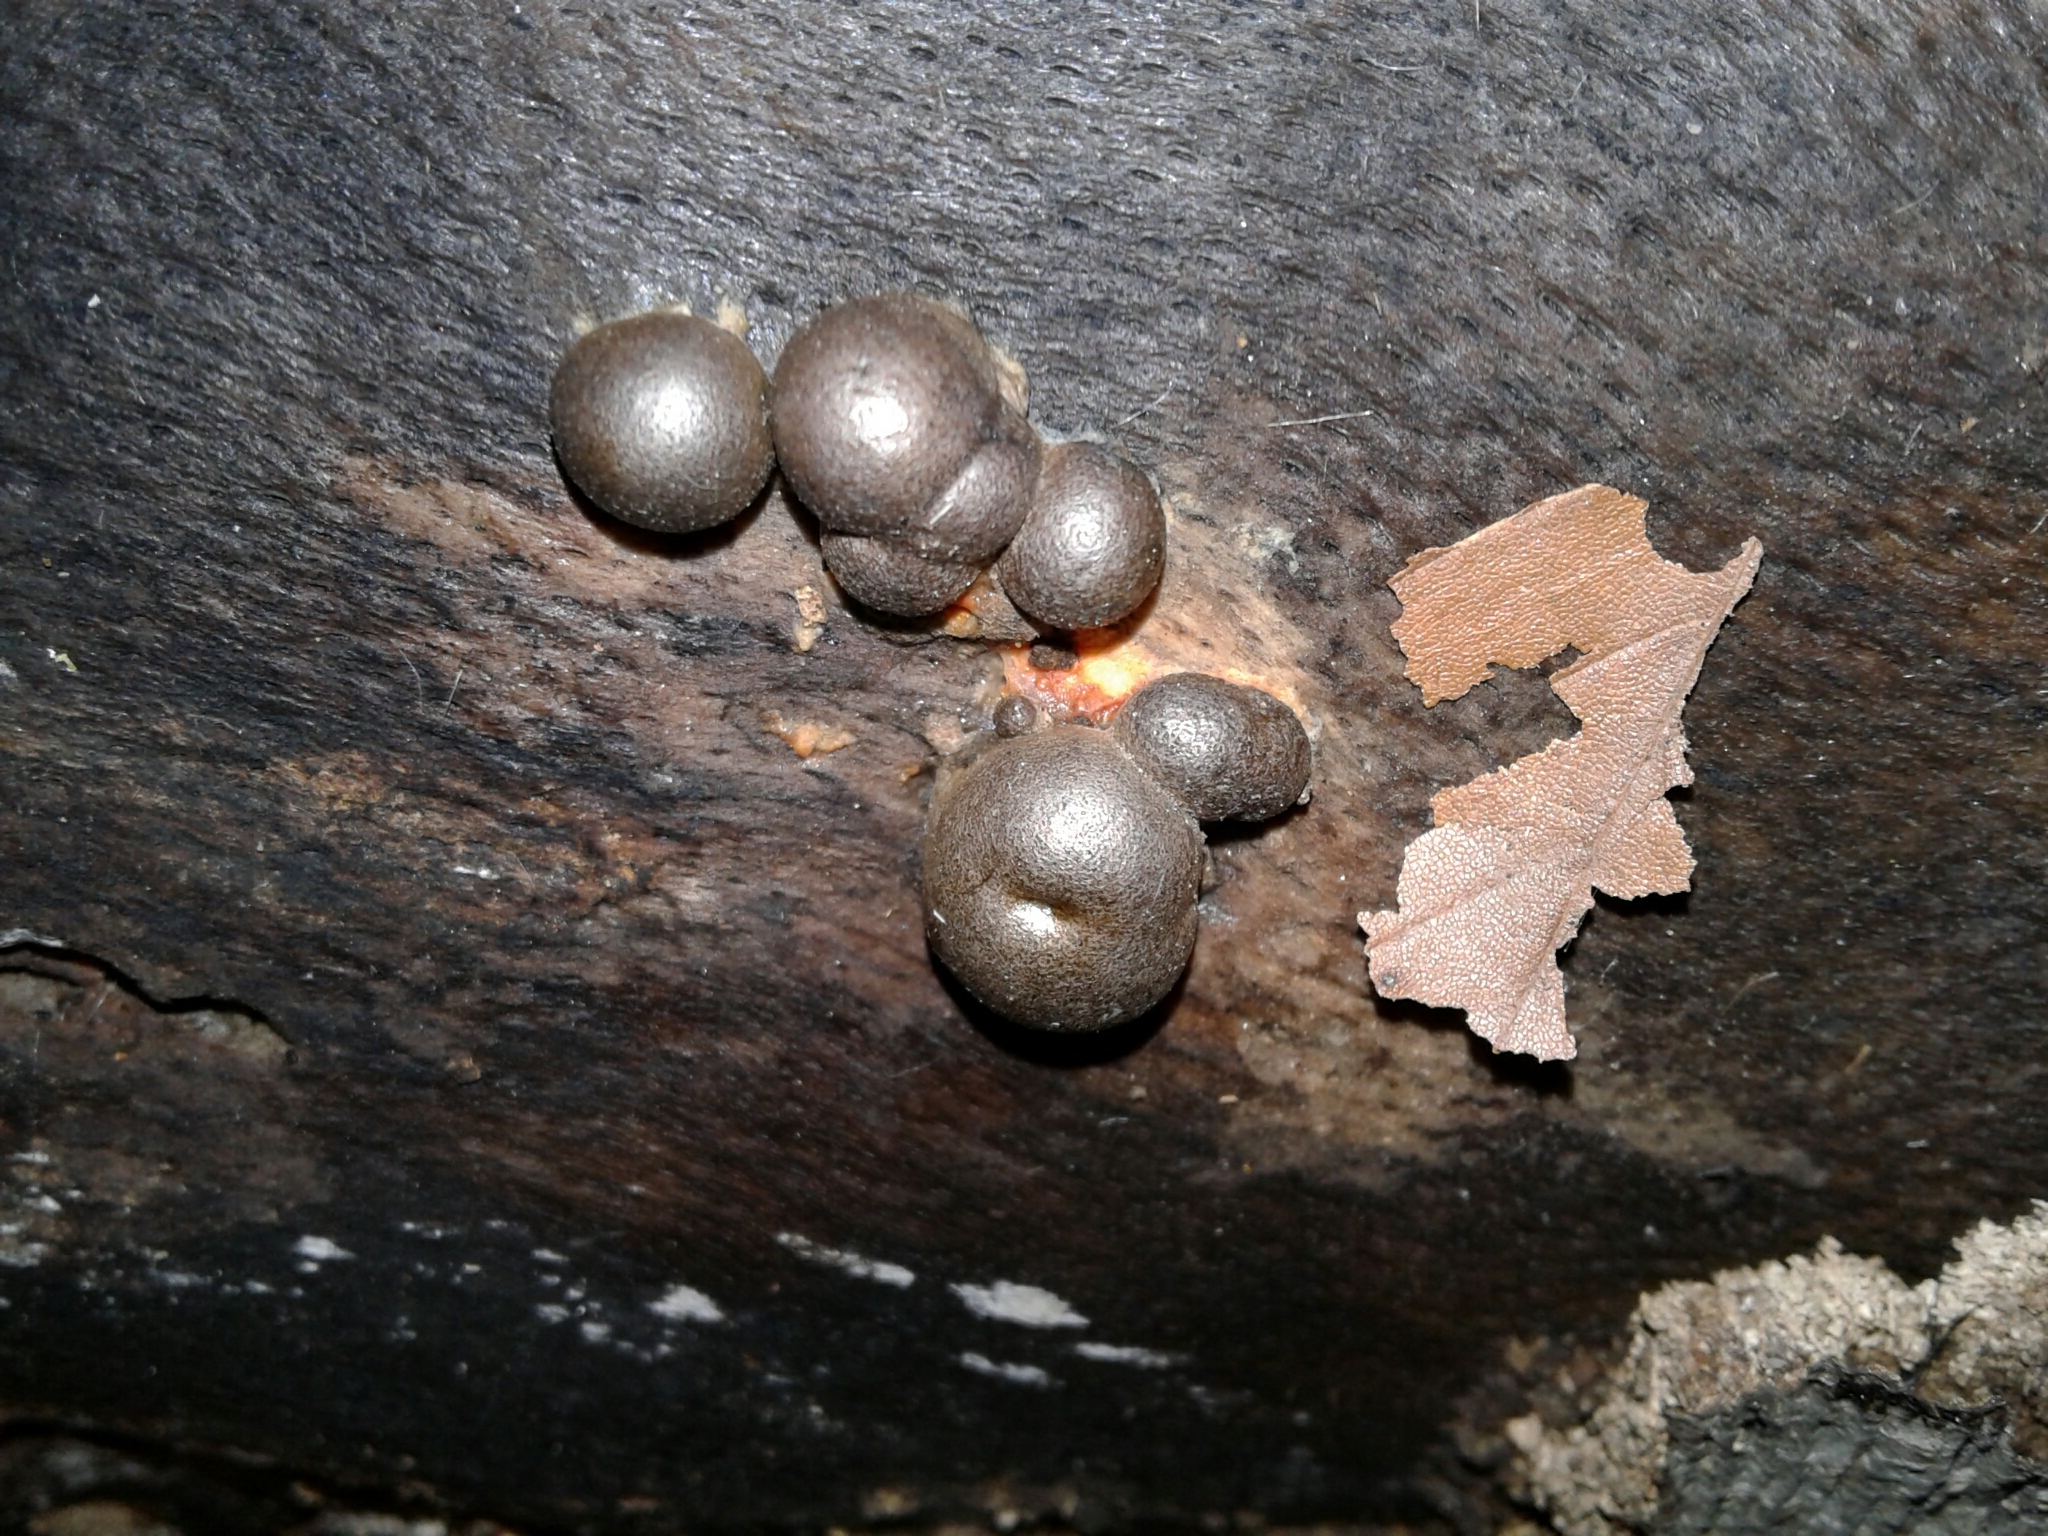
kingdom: Protozoa
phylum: Mycetozoa
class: Myxomycetes
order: Cribrariales
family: Tubiferaceae
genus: Lycogala
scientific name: Lycogala epidendrum
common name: Wolf's milk
